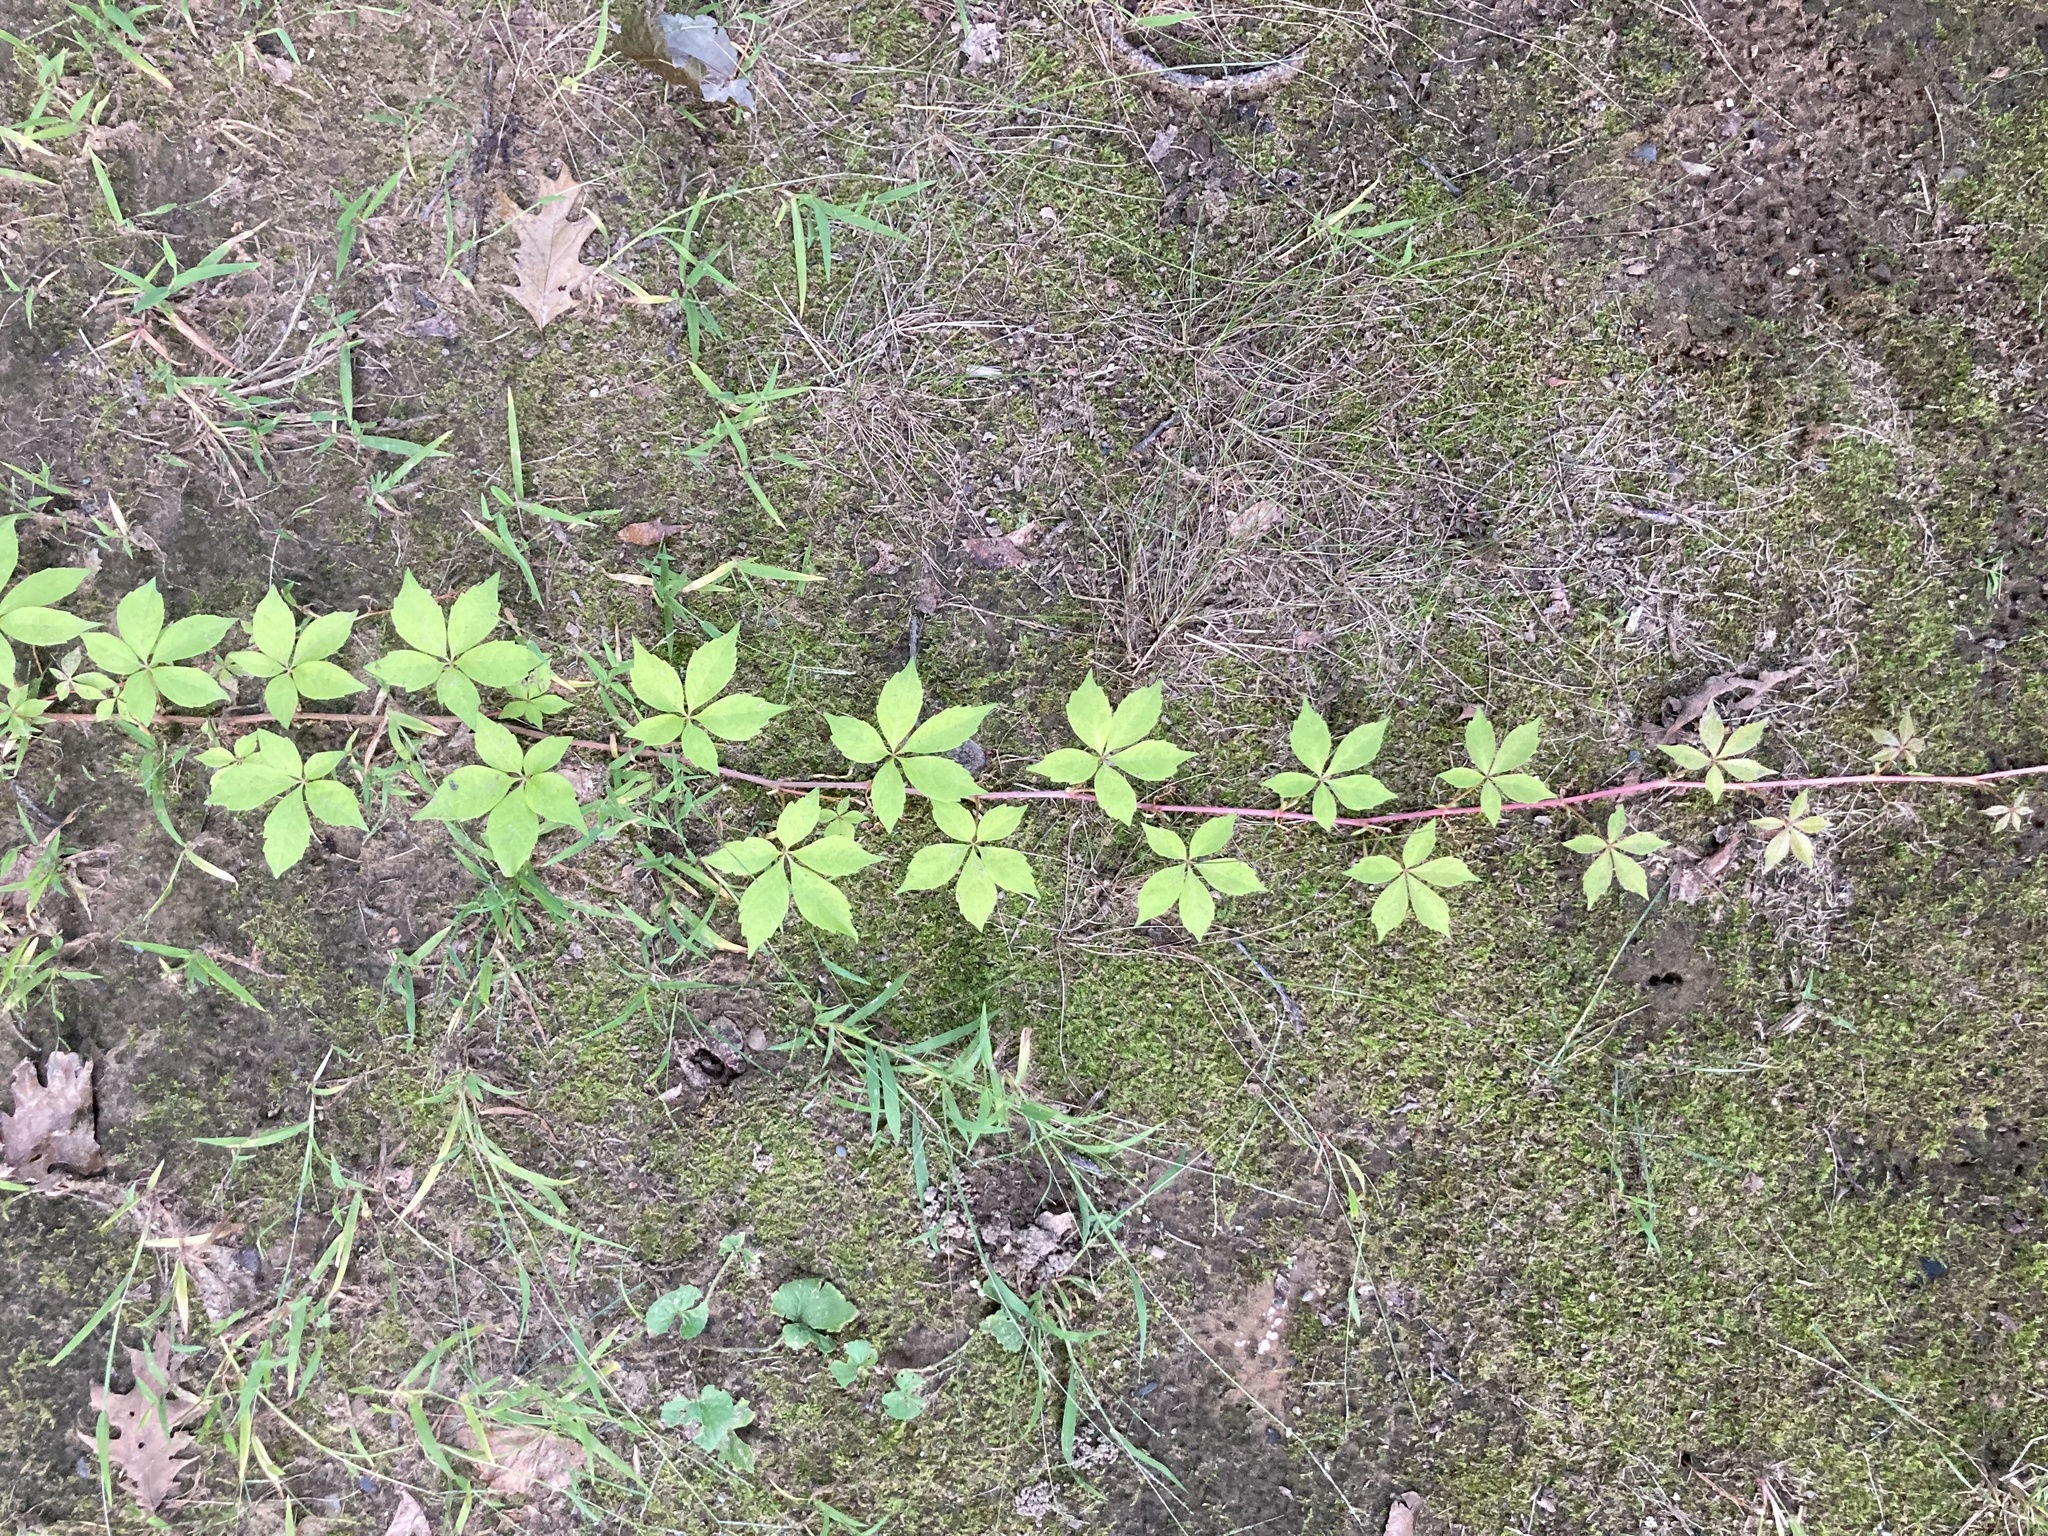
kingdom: Plantae
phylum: Tracheophyta
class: Magnoliopsida
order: Vitales
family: Vitaceae
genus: Parthenocissus
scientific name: Parthenocissus quinquefolia
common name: Virginia-creeper
